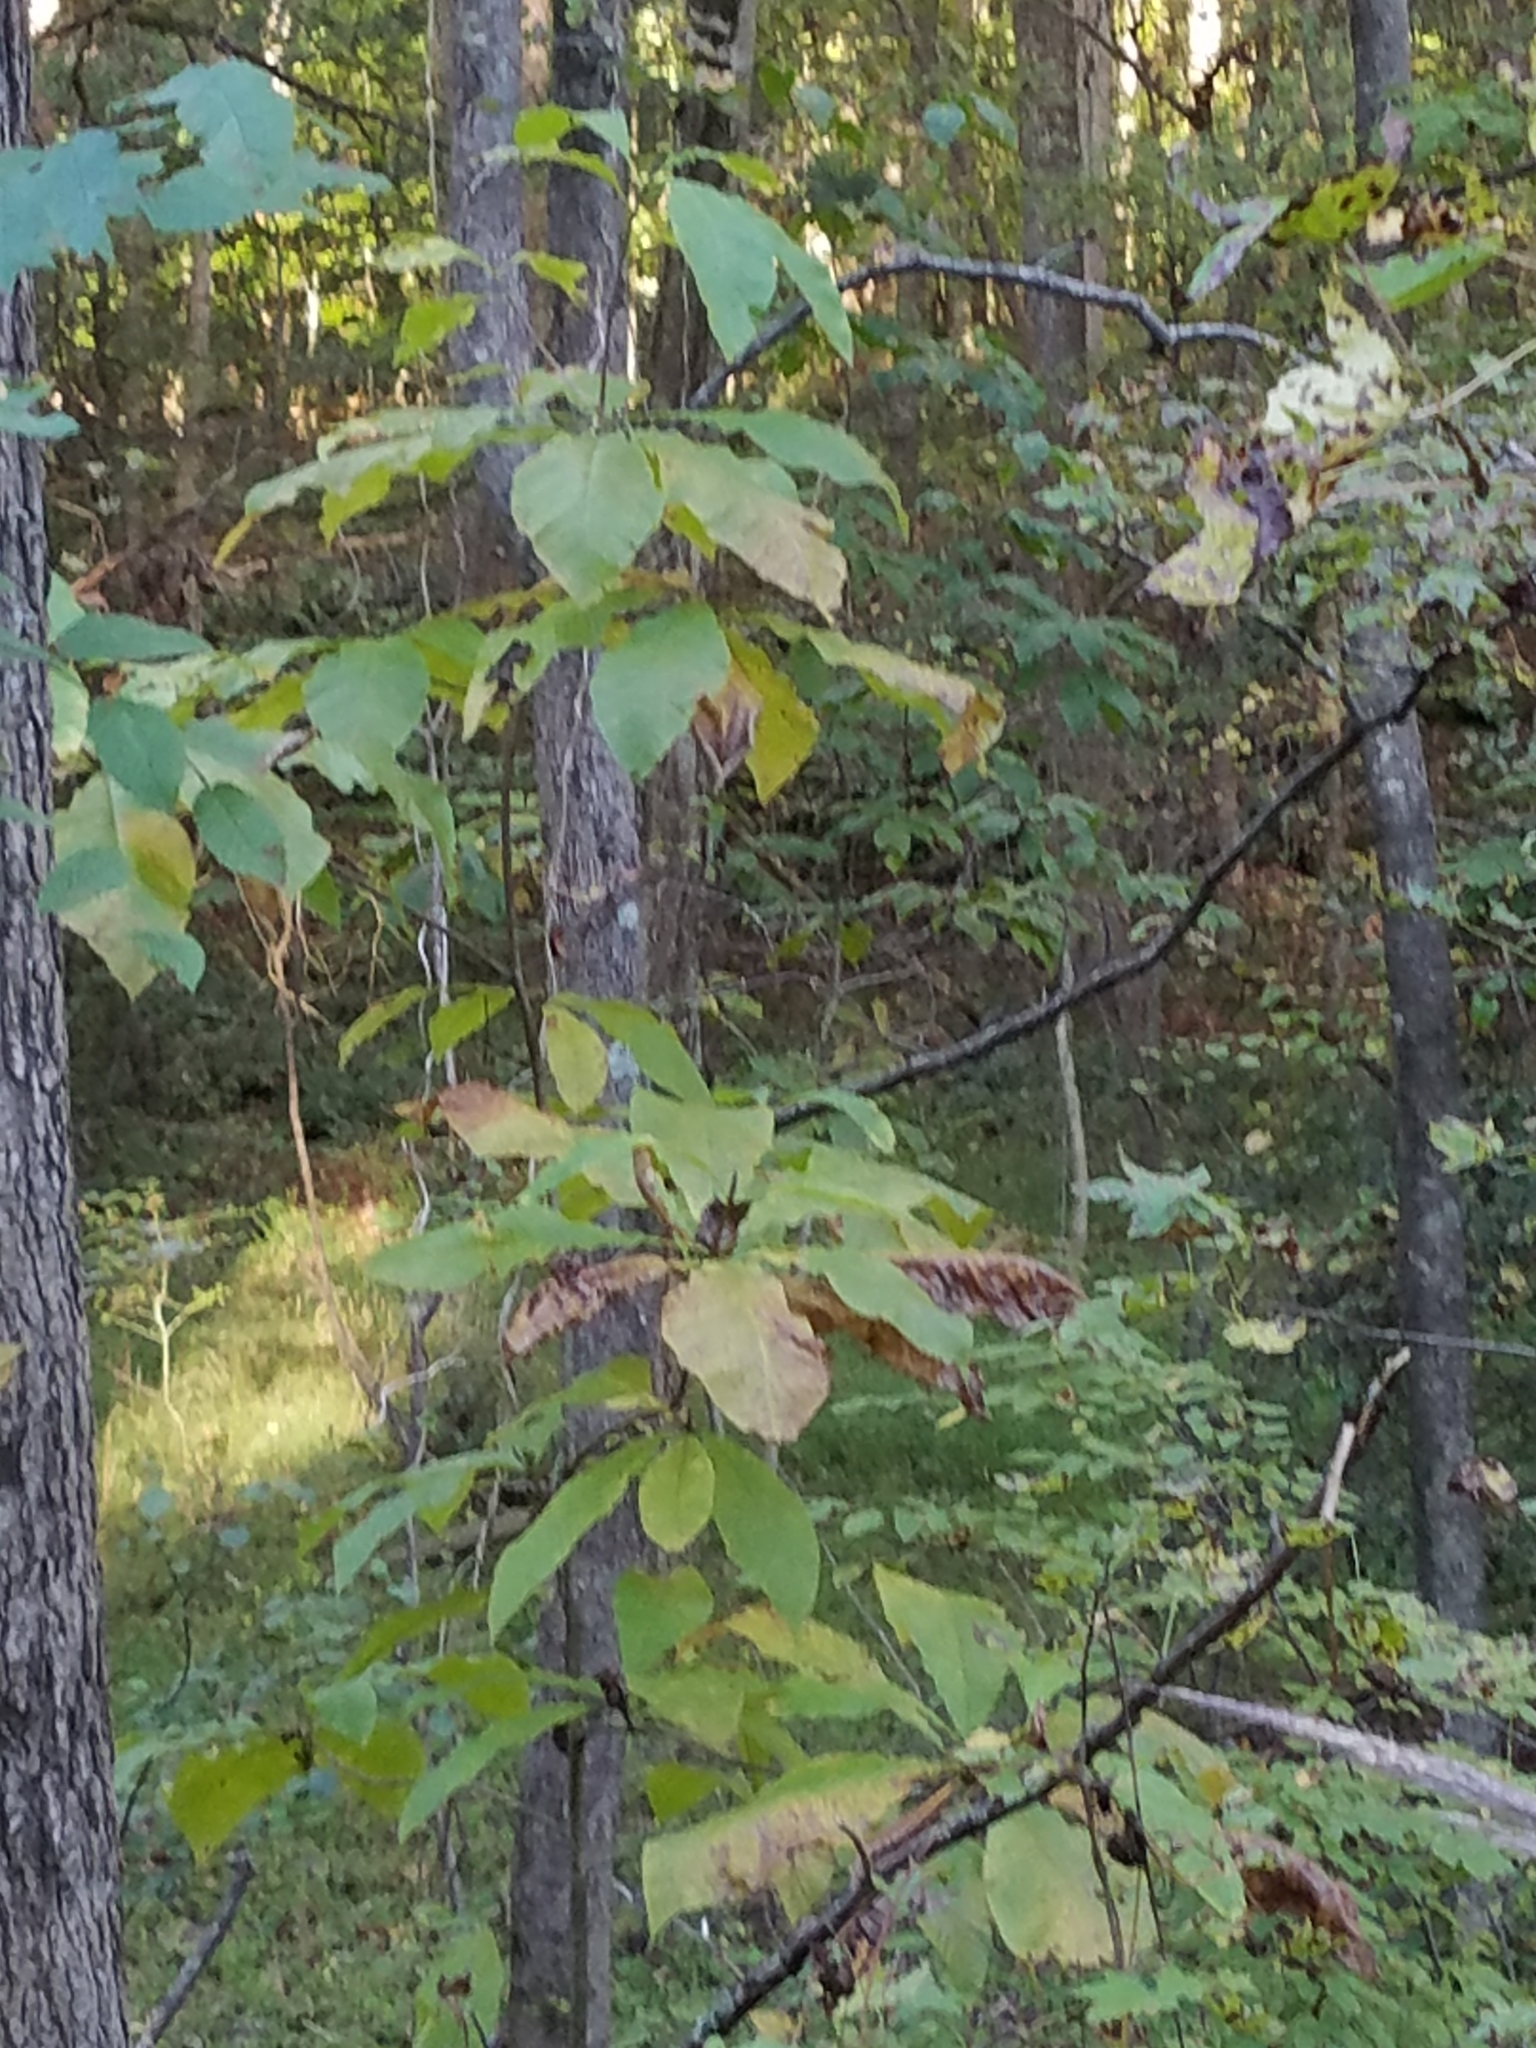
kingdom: Plantae
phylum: Tracheophyta
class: Magnoliopsida
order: Magnoliales
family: Magnoliaceae
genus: Magnolia
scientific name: Magnolia tripetala
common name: Umbrella magnolia
